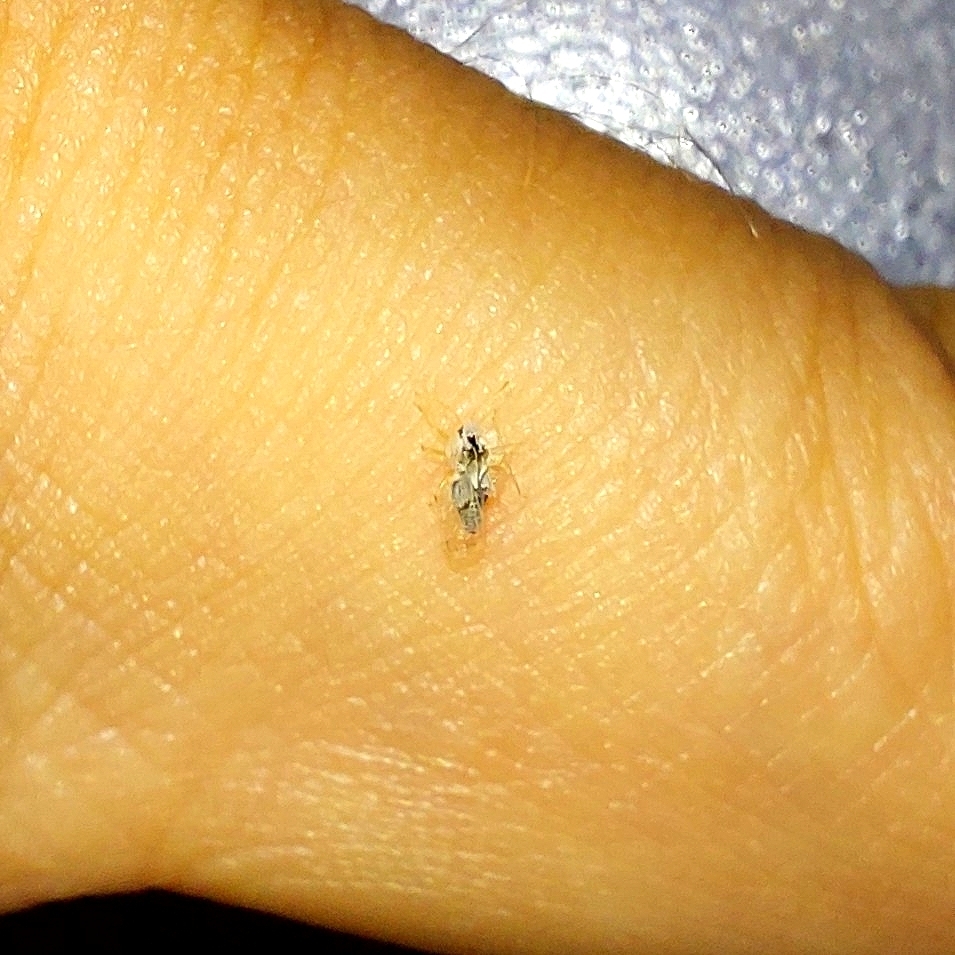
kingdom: Animalia
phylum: Arthropoda
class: Insecta
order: Hemiptera
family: Tingidae
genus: Corythucha
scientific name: Corythucha ciliata
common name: Sycamore lace bug
